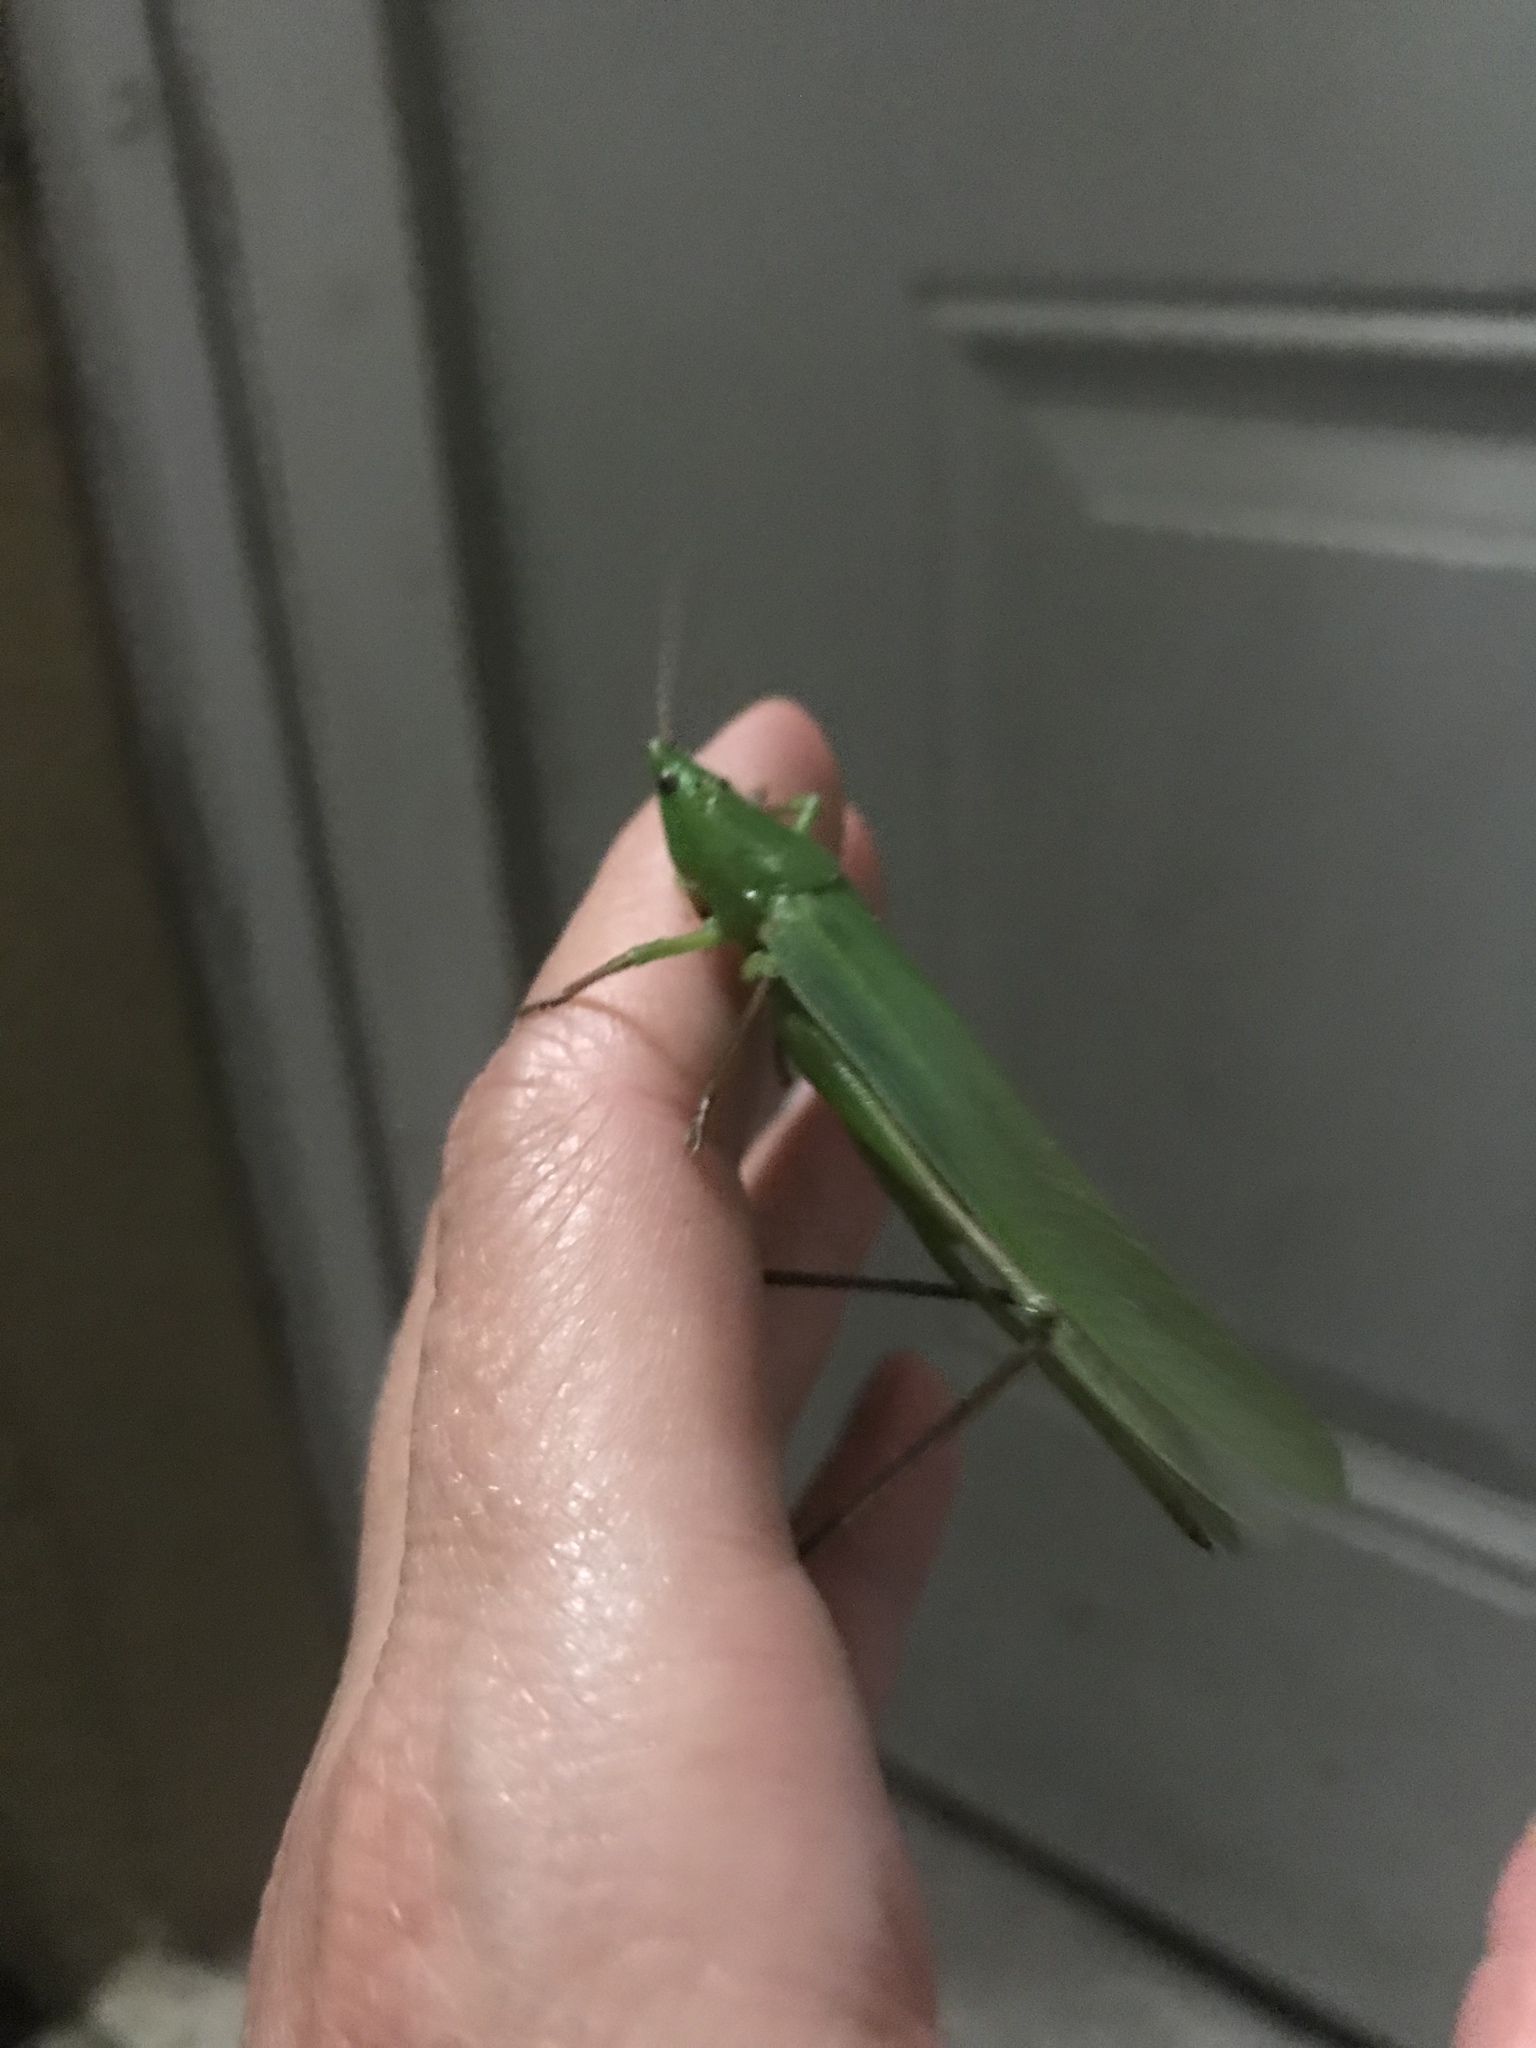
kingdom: Animalia
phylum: Arthropoda
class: Insecta
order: Orthoptera
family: Tettigoniidae
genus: Neoconocephalus
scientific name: Neoconocephalus triops
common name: Broad-tipped conehead
